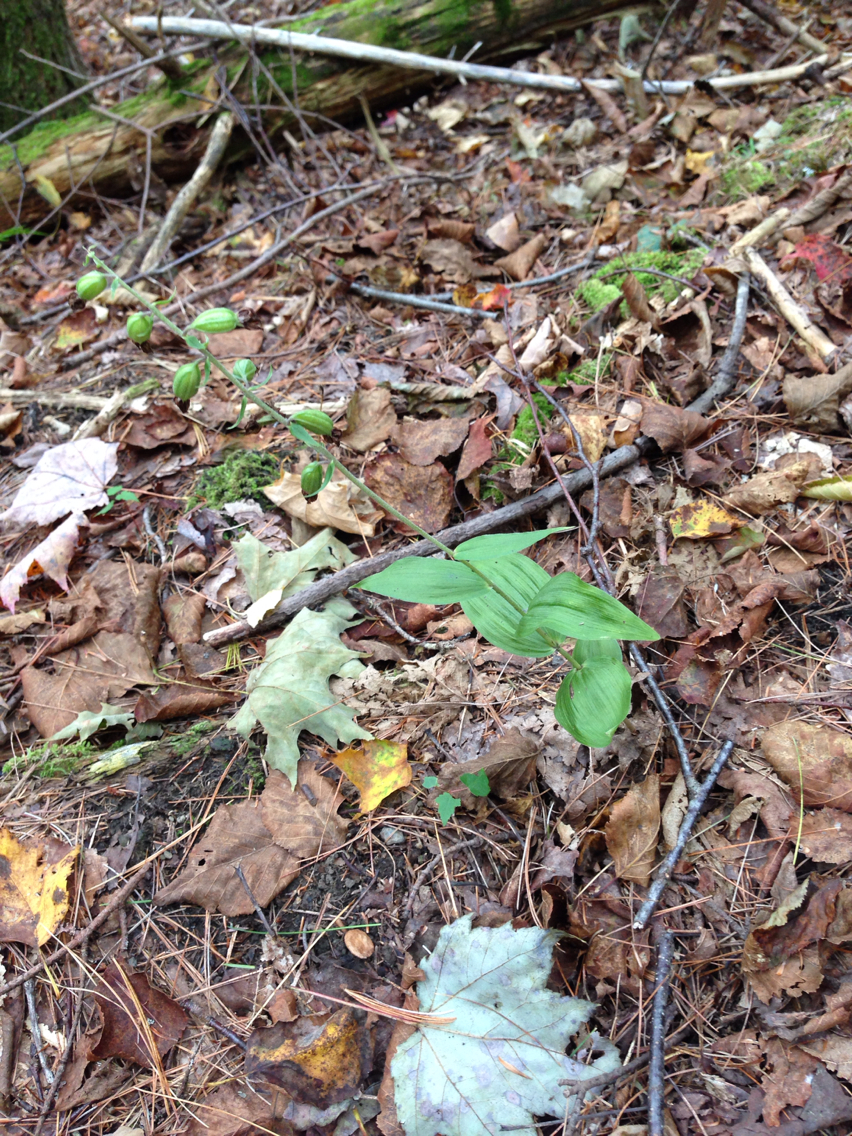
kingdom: Plantae
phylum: Tracheophyta
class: Liliopsida
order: Asparagales
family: Orchidaceae
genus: Epipactis
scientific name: Epipactis helleborine
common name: Broad-leaved helleborine
